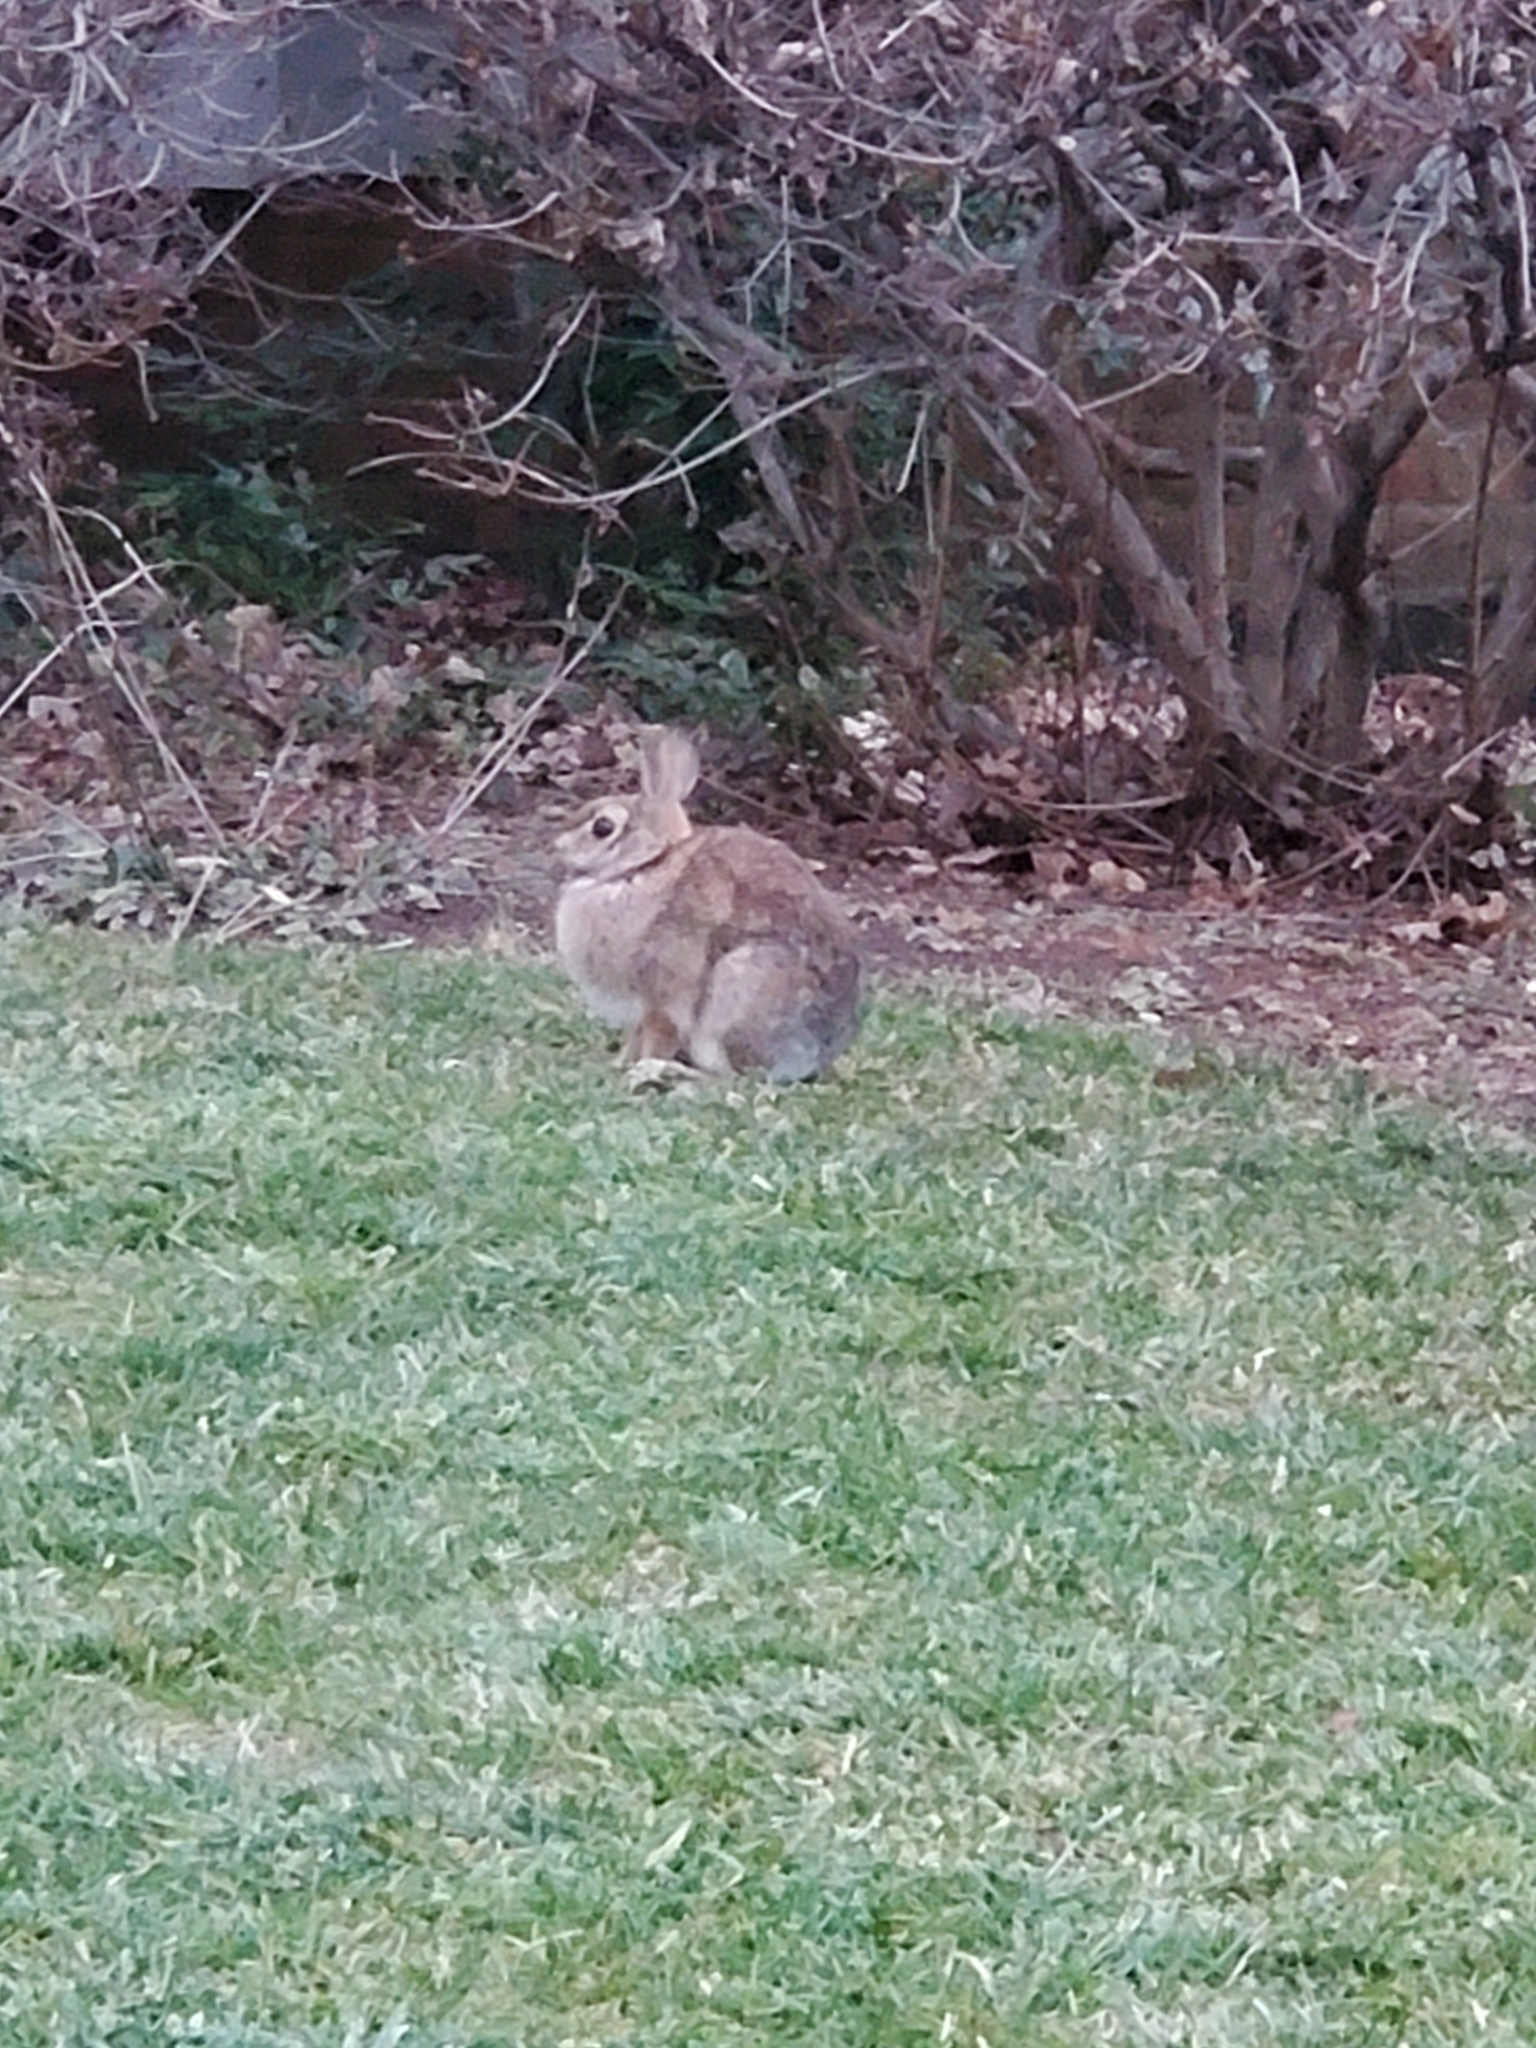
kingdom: Animalia
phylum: Chordata
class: Mammalia
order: Lagomorpha
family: Leporidae
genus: Sylvilagus
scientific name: Sylvilagus floridanus
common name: Eastern cottontail
